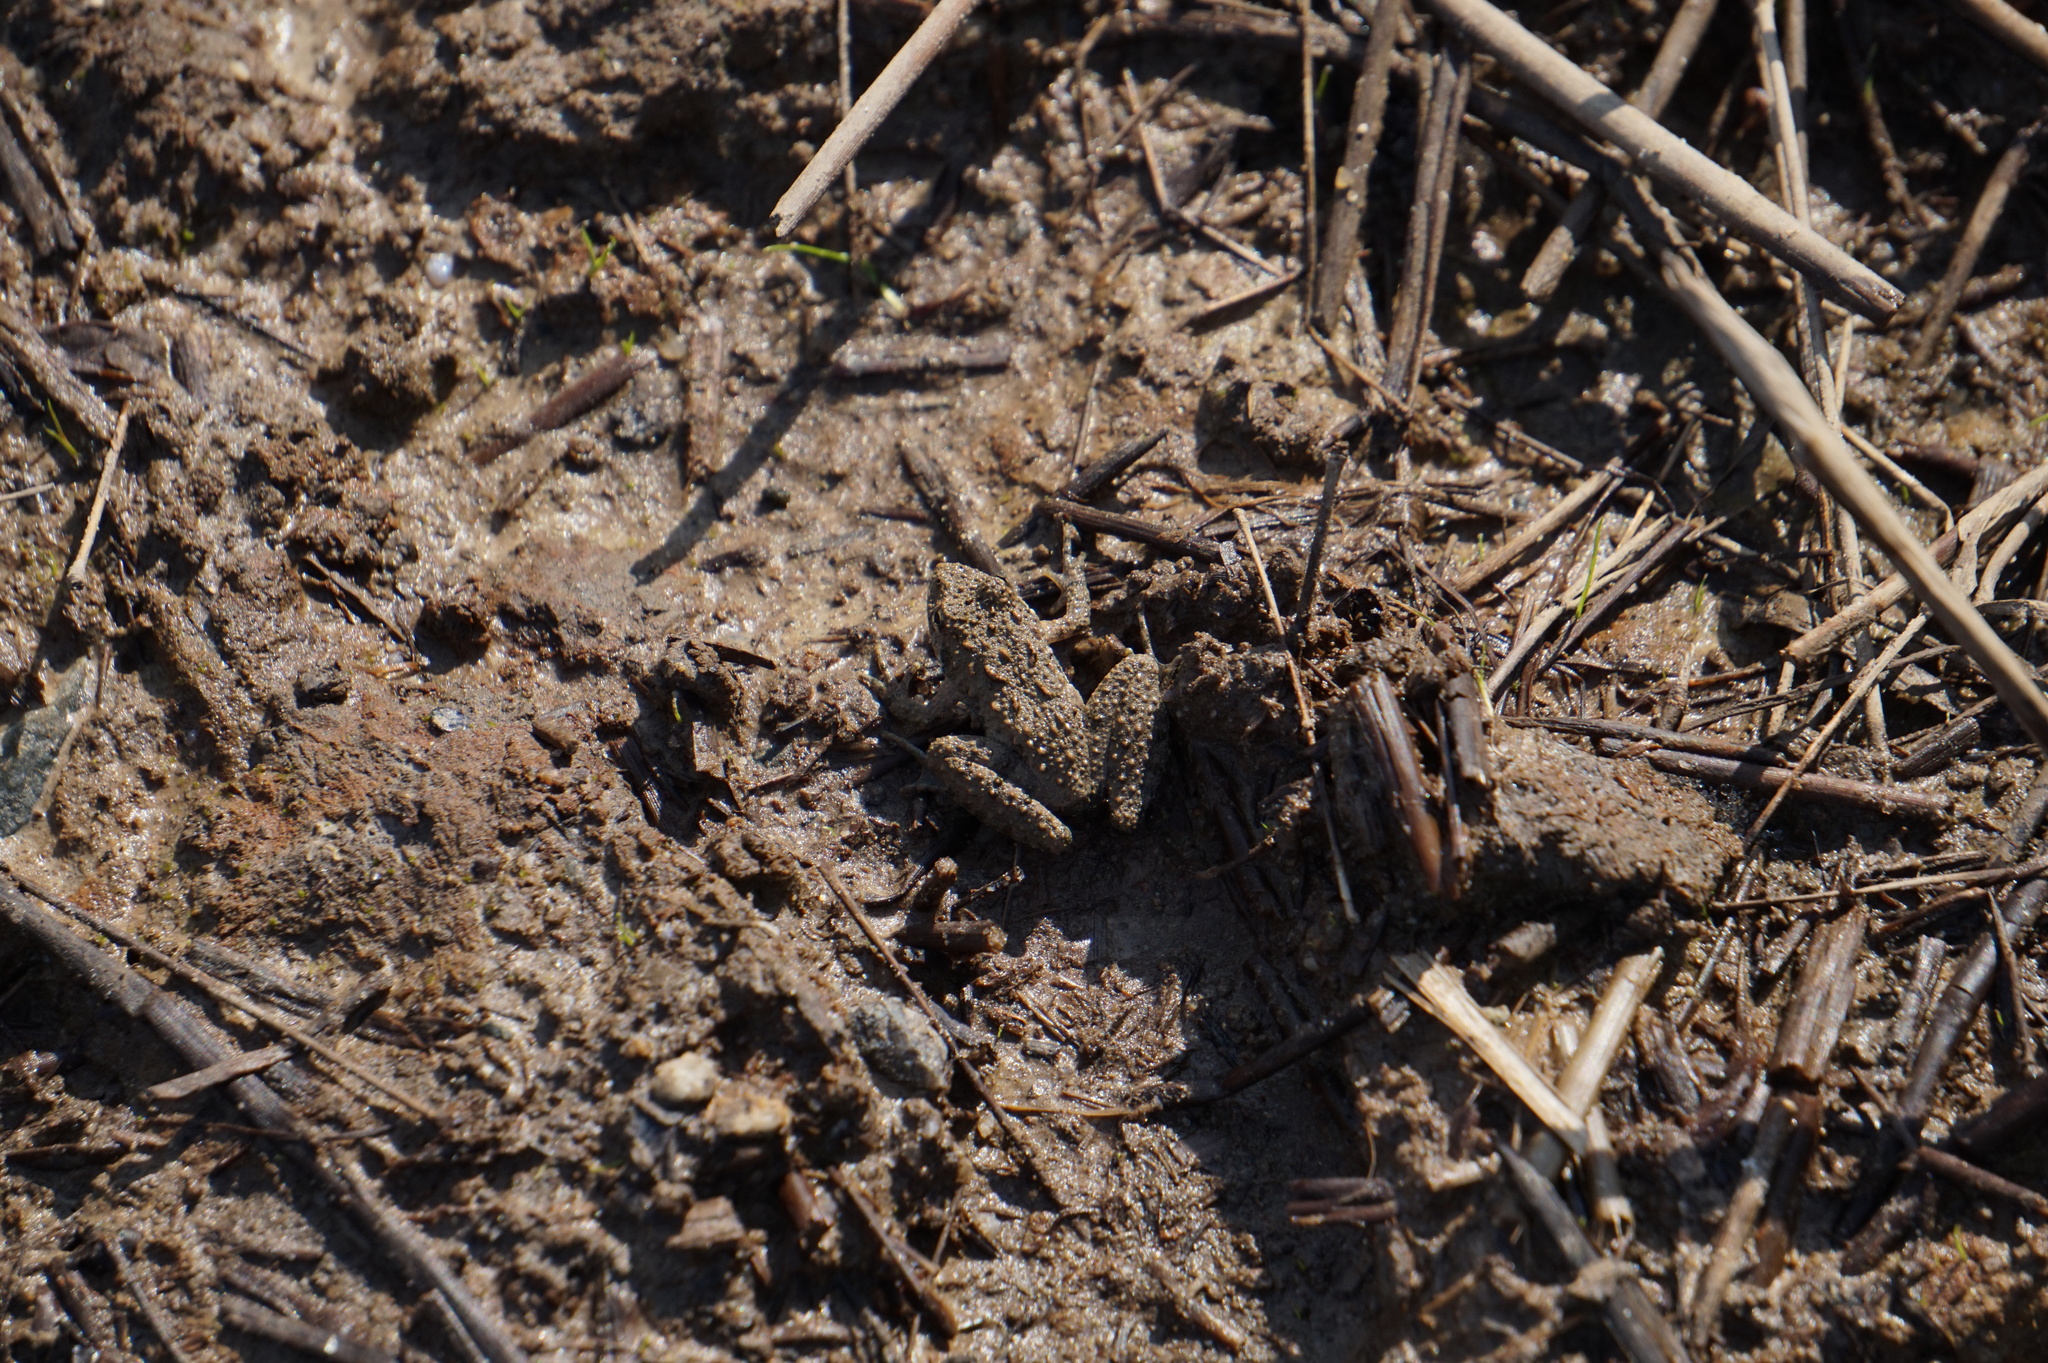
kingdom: Animalia
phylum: Chordata
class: Amphibia
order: Anura
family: Hylidae
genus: Acris
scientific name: Acris crepitans
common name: Northern cricket frog
